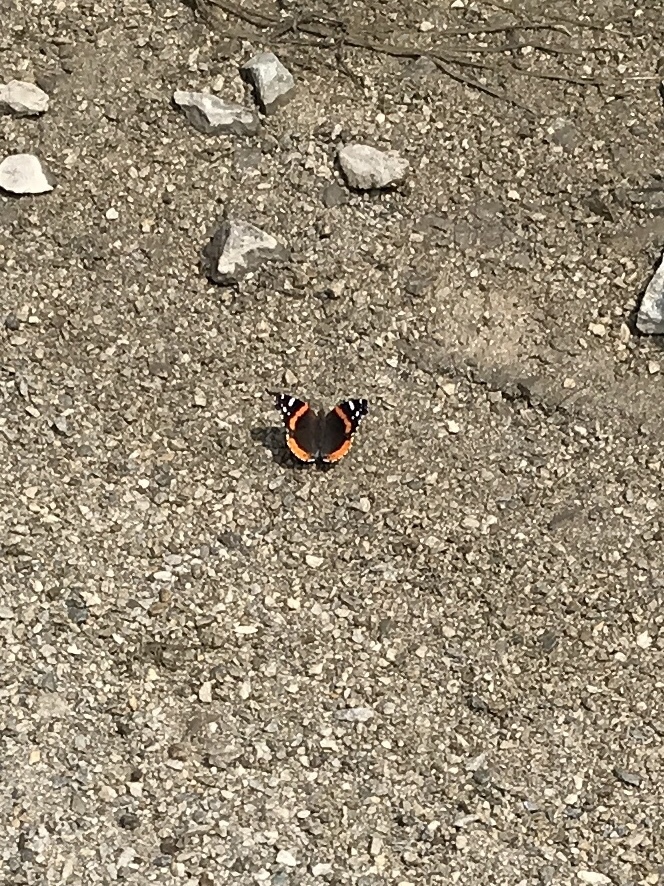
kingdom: Animalia
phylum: Arthropoda
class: Insecta
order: Lepidoptera
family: Nymphalidae
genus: Vanessa
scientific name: Vanessa atalanta
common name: Red admiral
